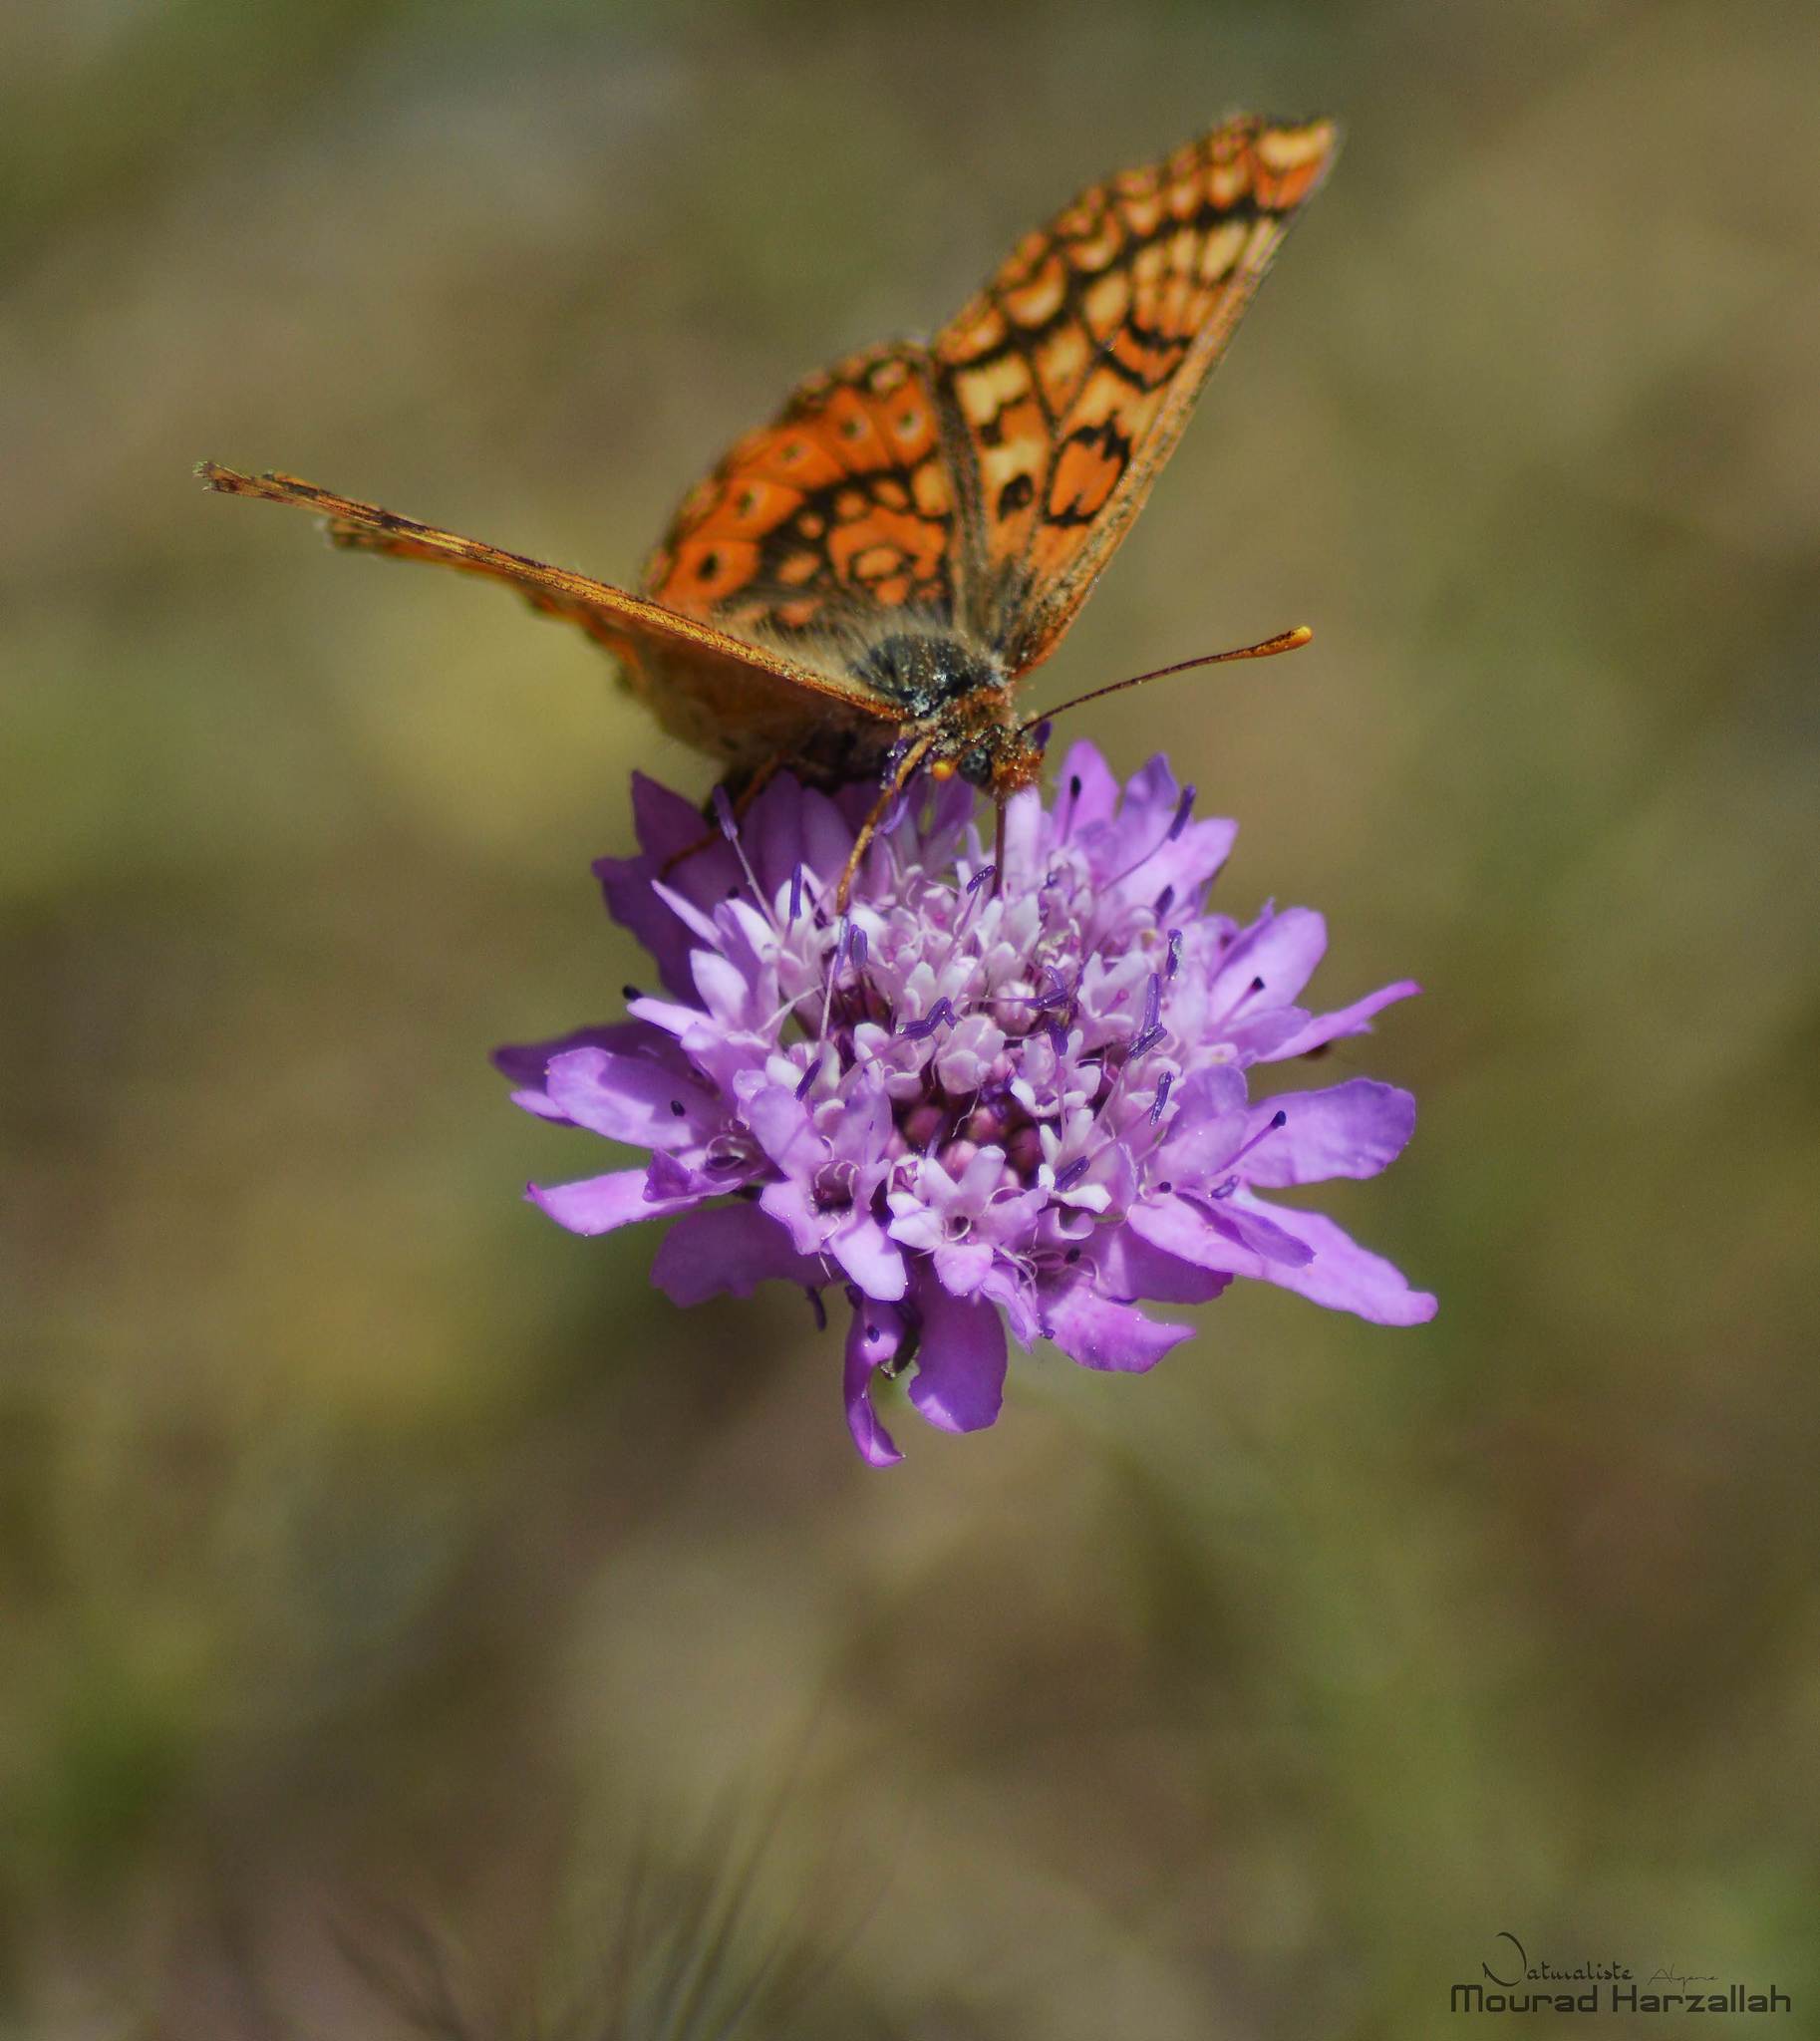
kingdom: Animalia
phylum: Arthropoda
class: Insecta
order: Lepidoptera
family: Nymphalidae
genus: Euphydryas
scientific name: Euphydryas aurinia
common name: Marsh fritillary
